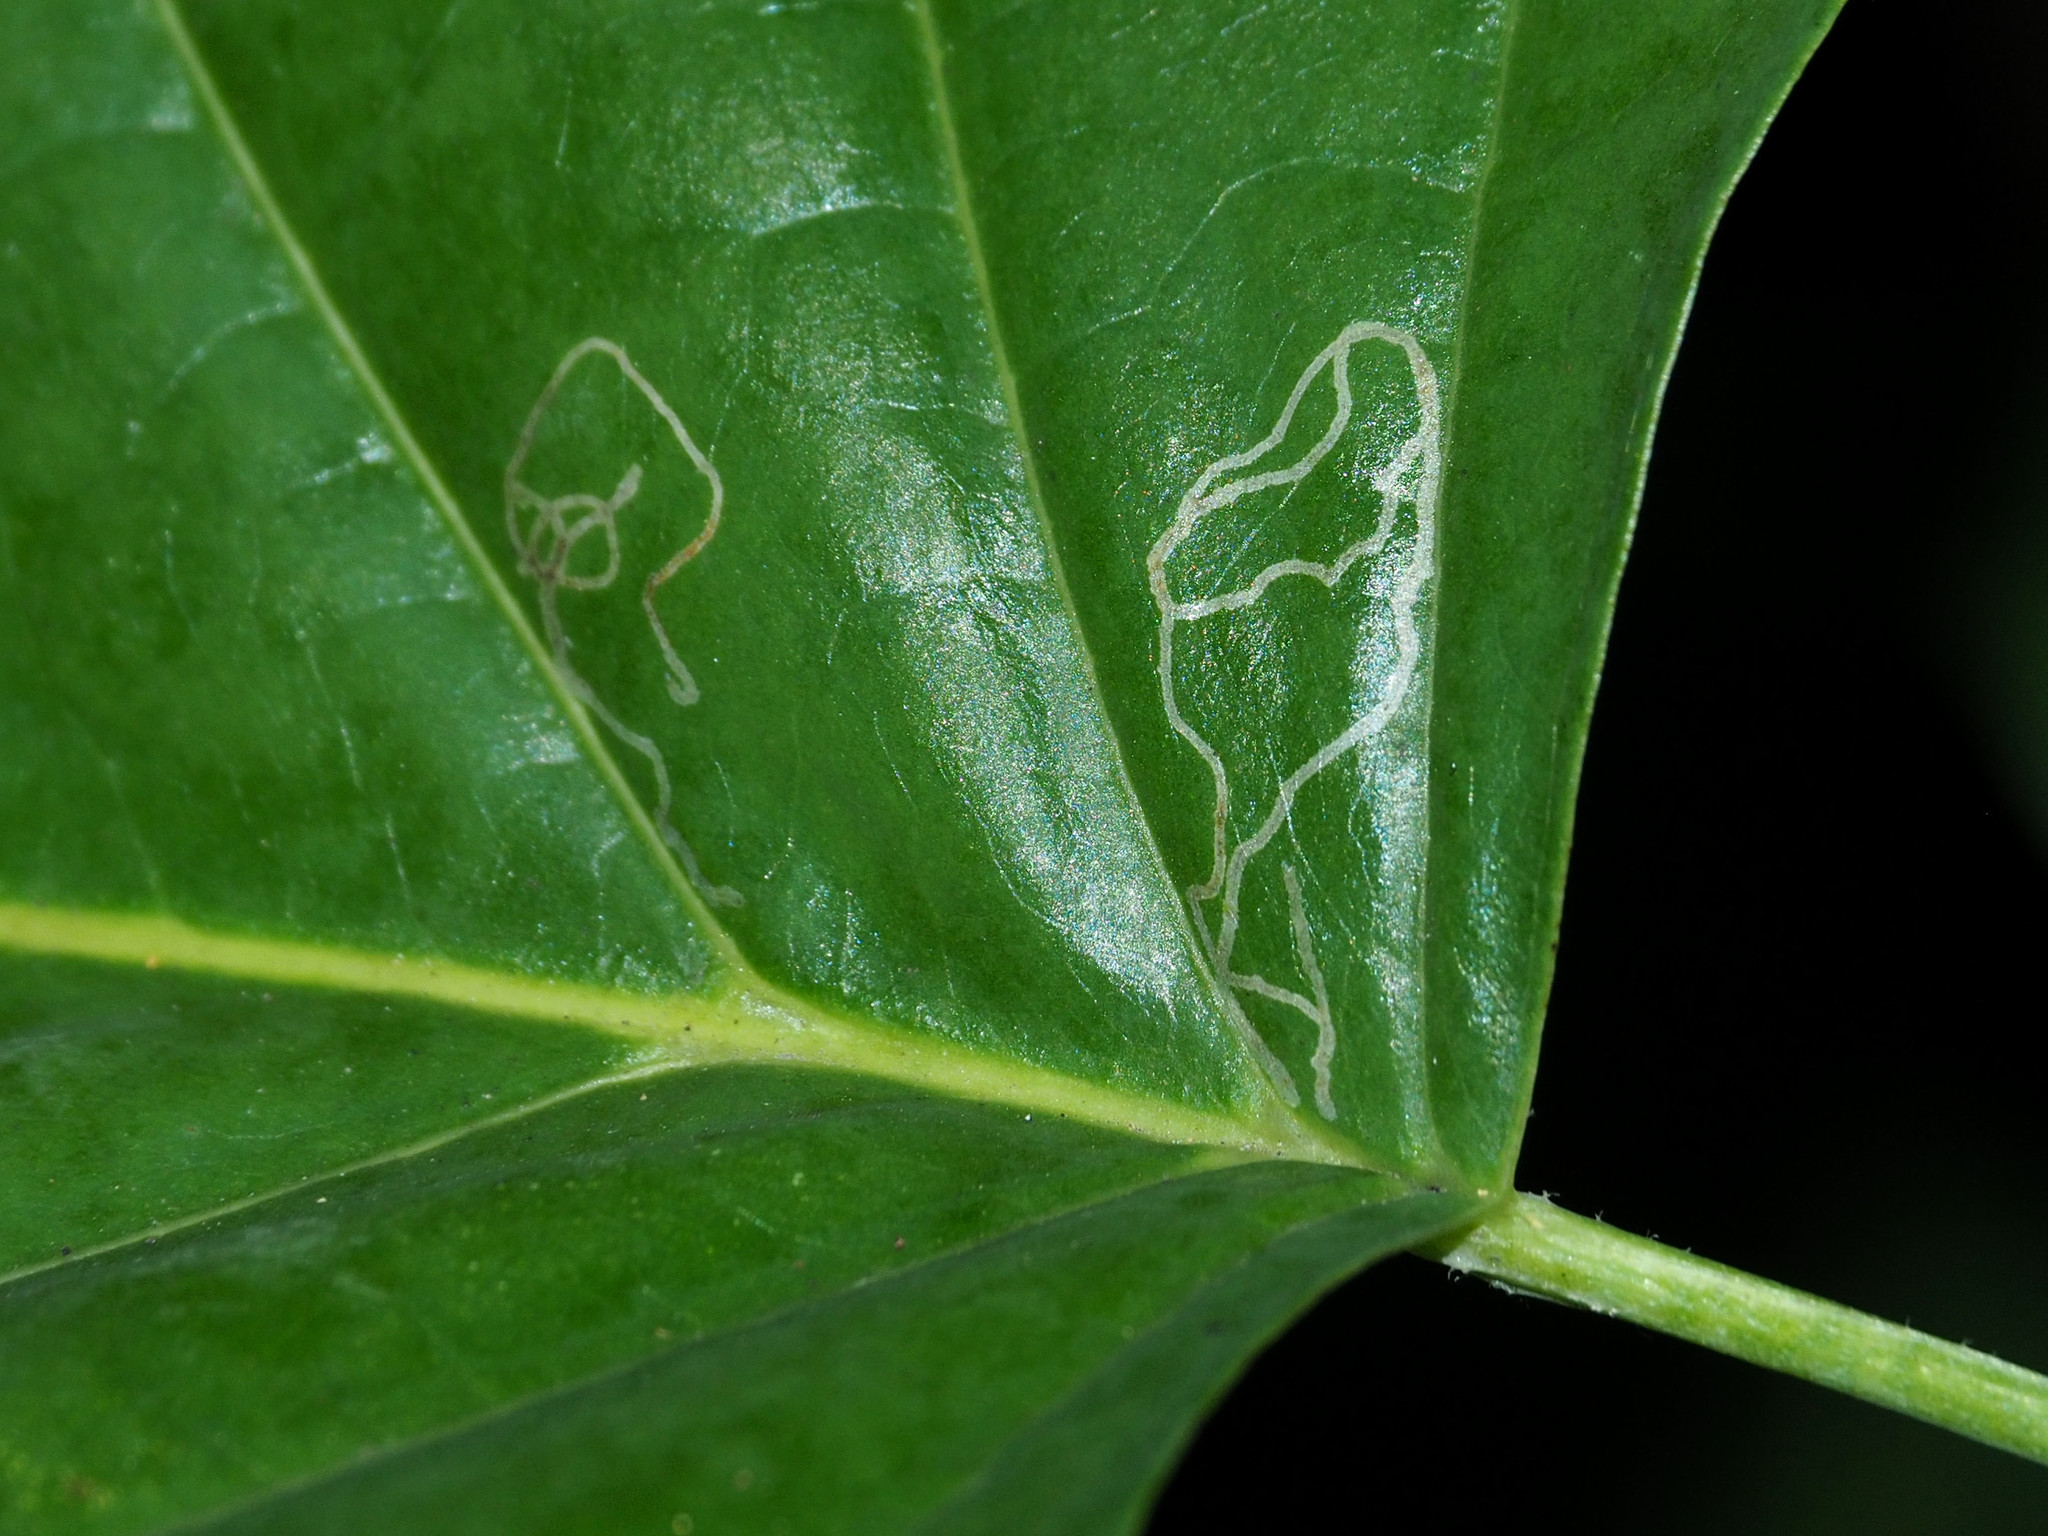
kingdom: Animalia
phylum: Arthropoda
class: Insecta
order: Lepidoptera
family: Gracillariidae
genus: Phyllocnistis
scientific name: Phyllocnistis liriodendronella
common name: Tulip tree leaf miner
